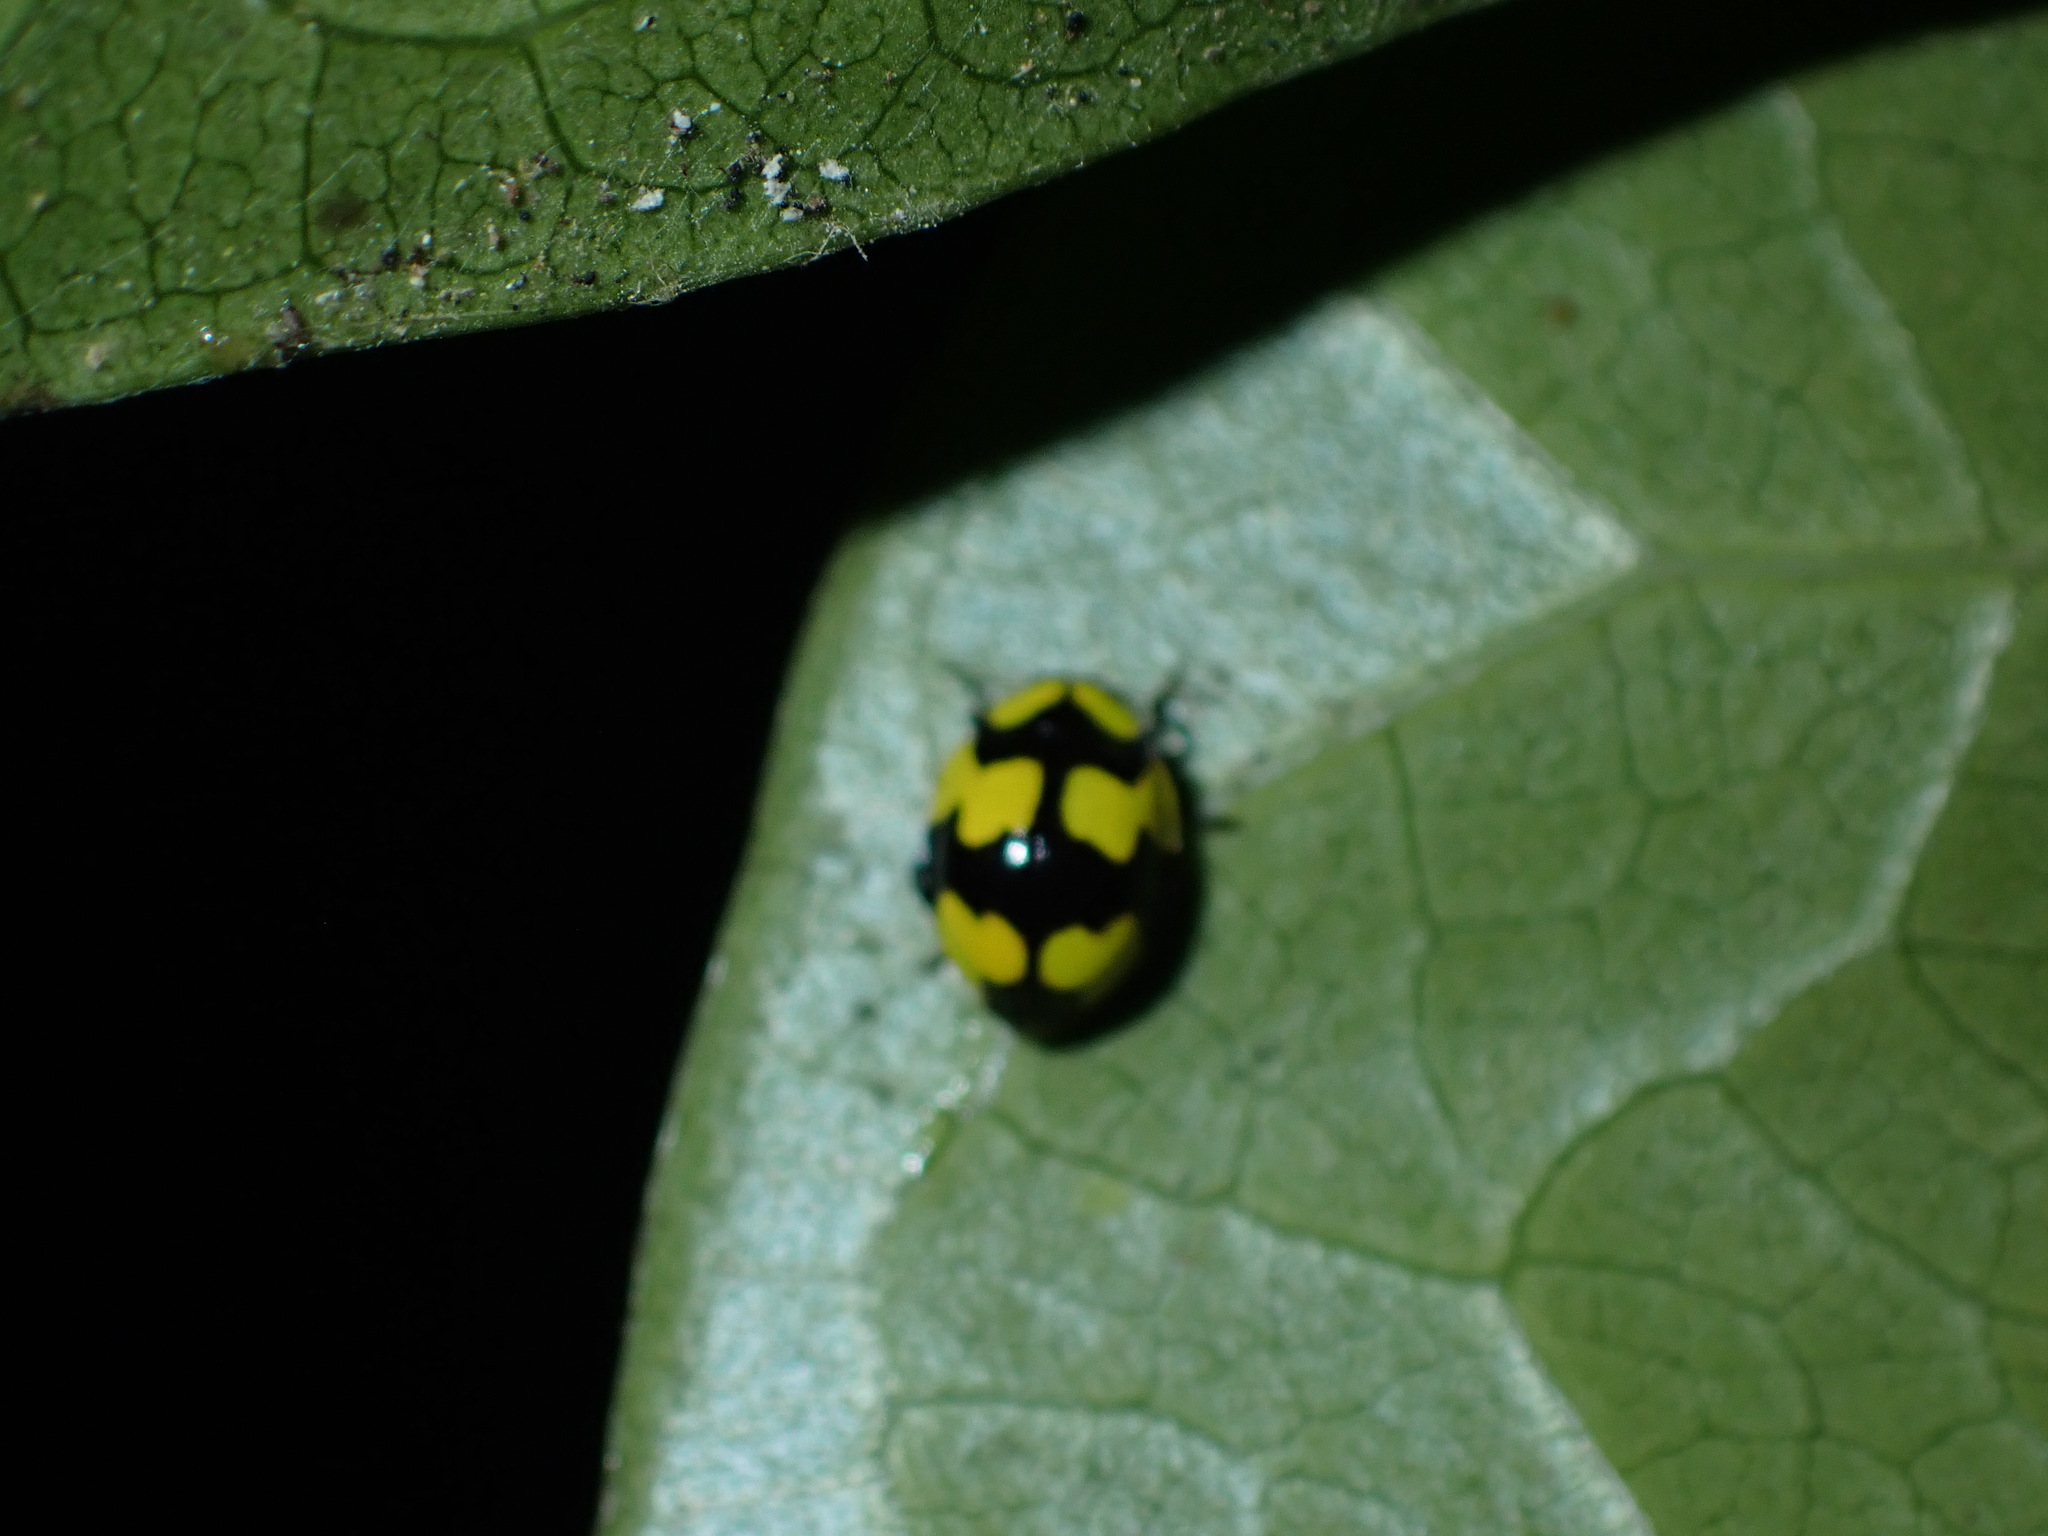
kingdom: Animalia
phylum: Arthropoda
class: Insecta
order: Coleoptera
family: Coccinellidae
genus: Illeis
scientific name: Illeis galbula
